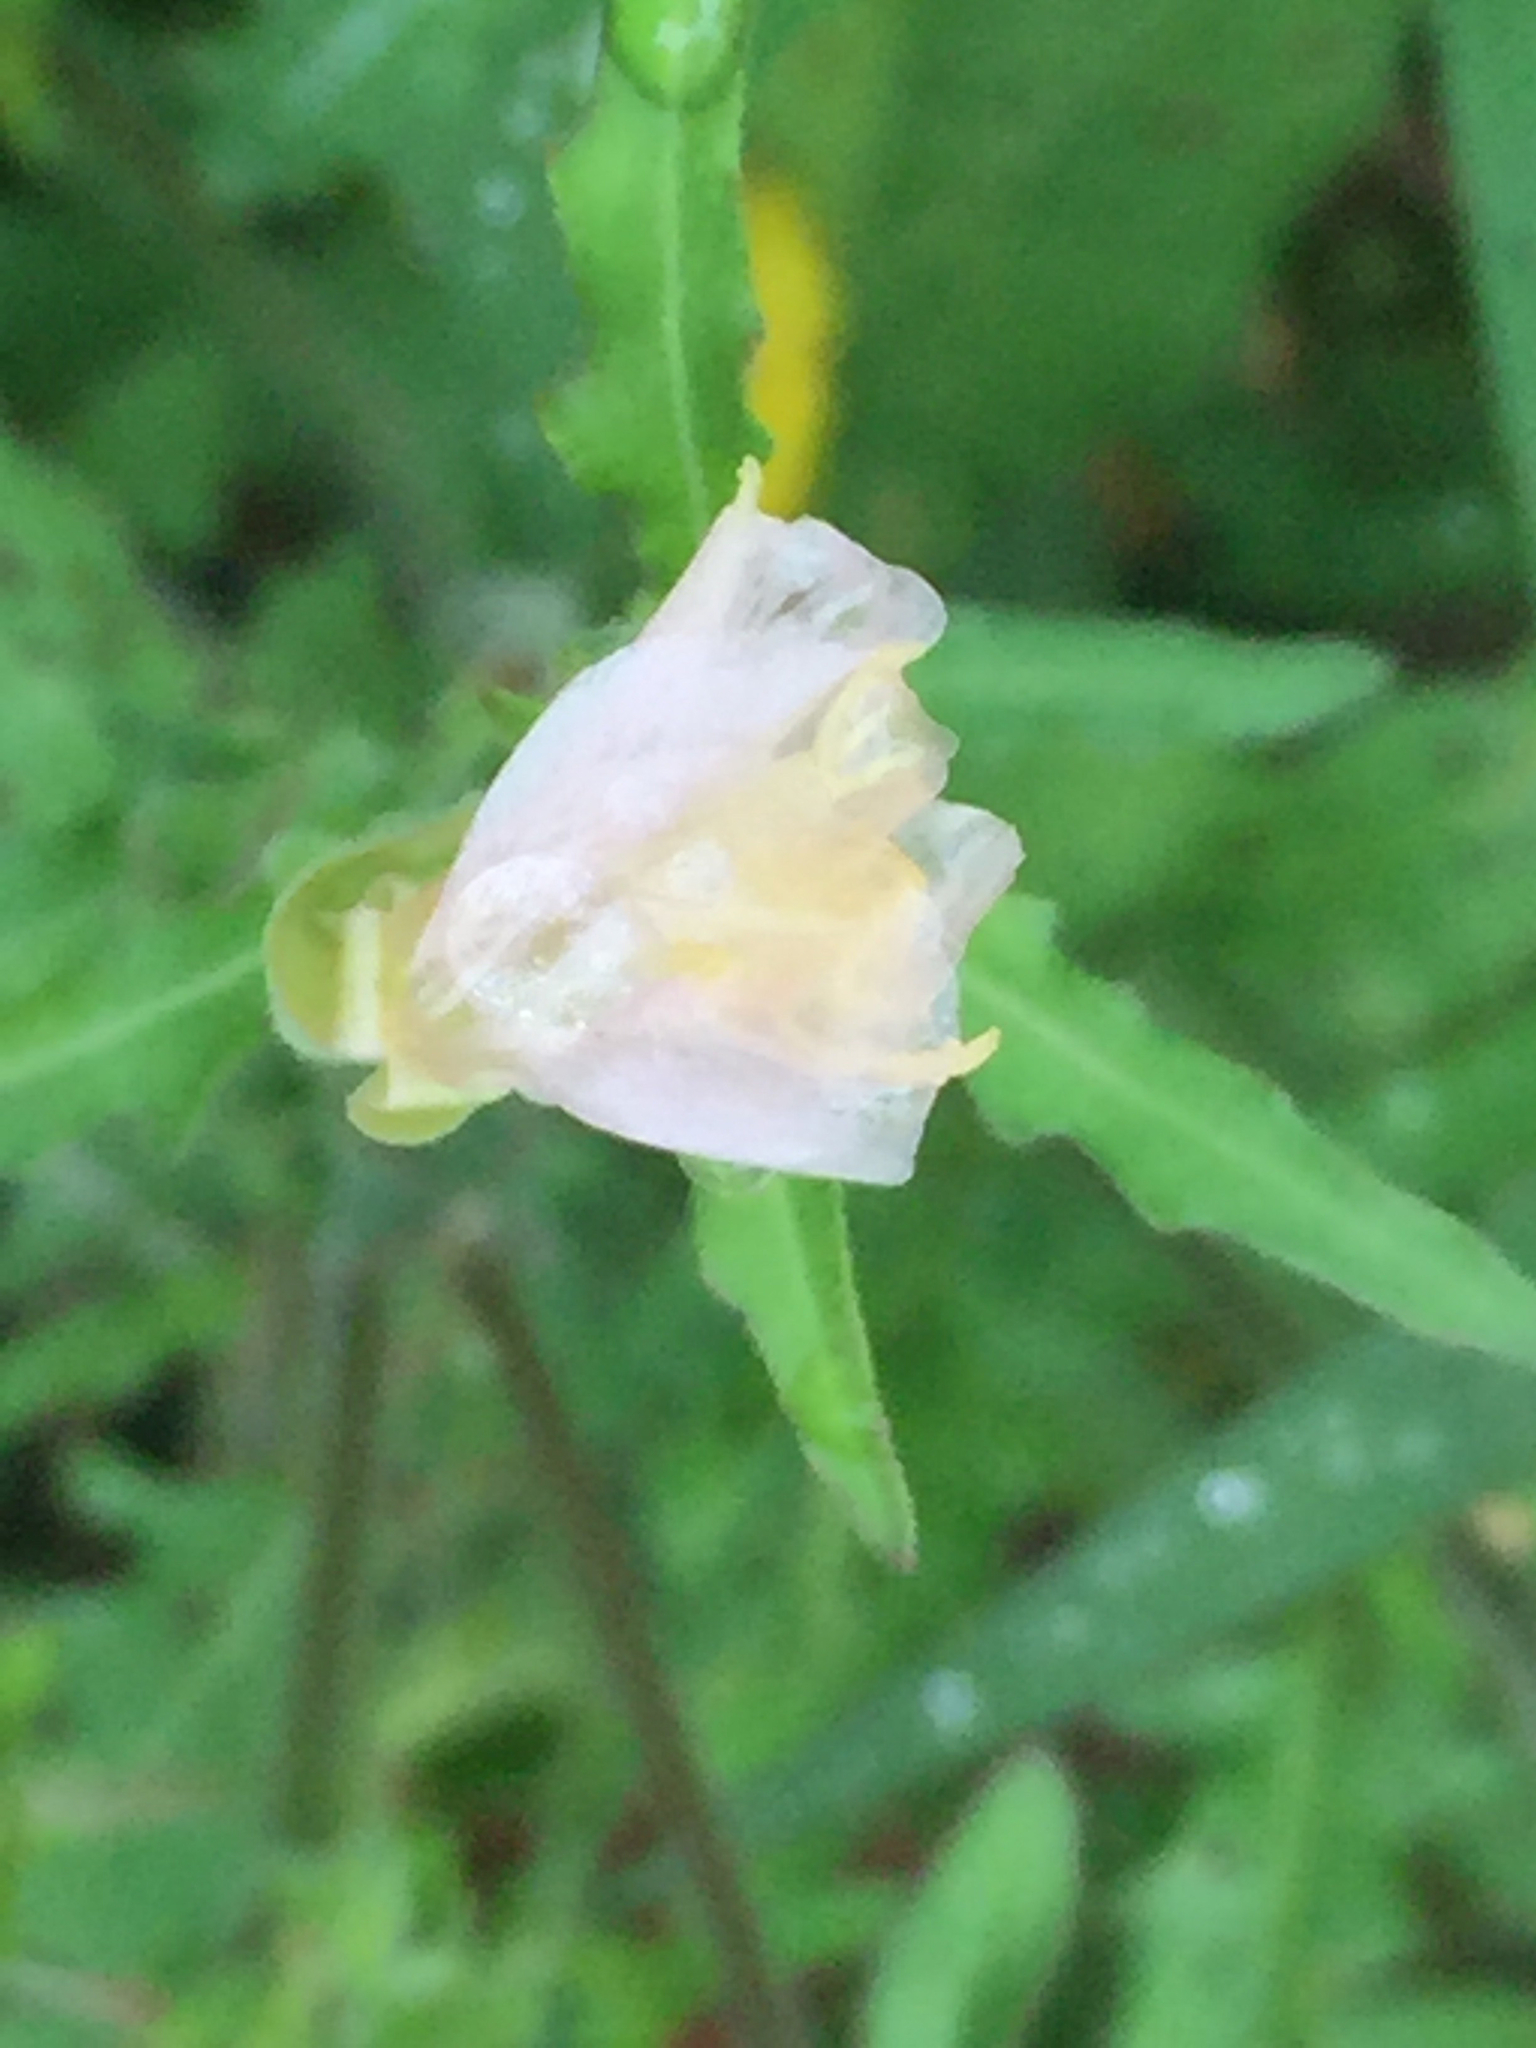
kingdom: Plantae
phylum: Tracheophyta
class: Magnoliopsida
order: Myrtales
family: Onagraceae
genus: Oenothera
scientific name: Oenothera tetraptera
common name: Four-wing evening-primrose
